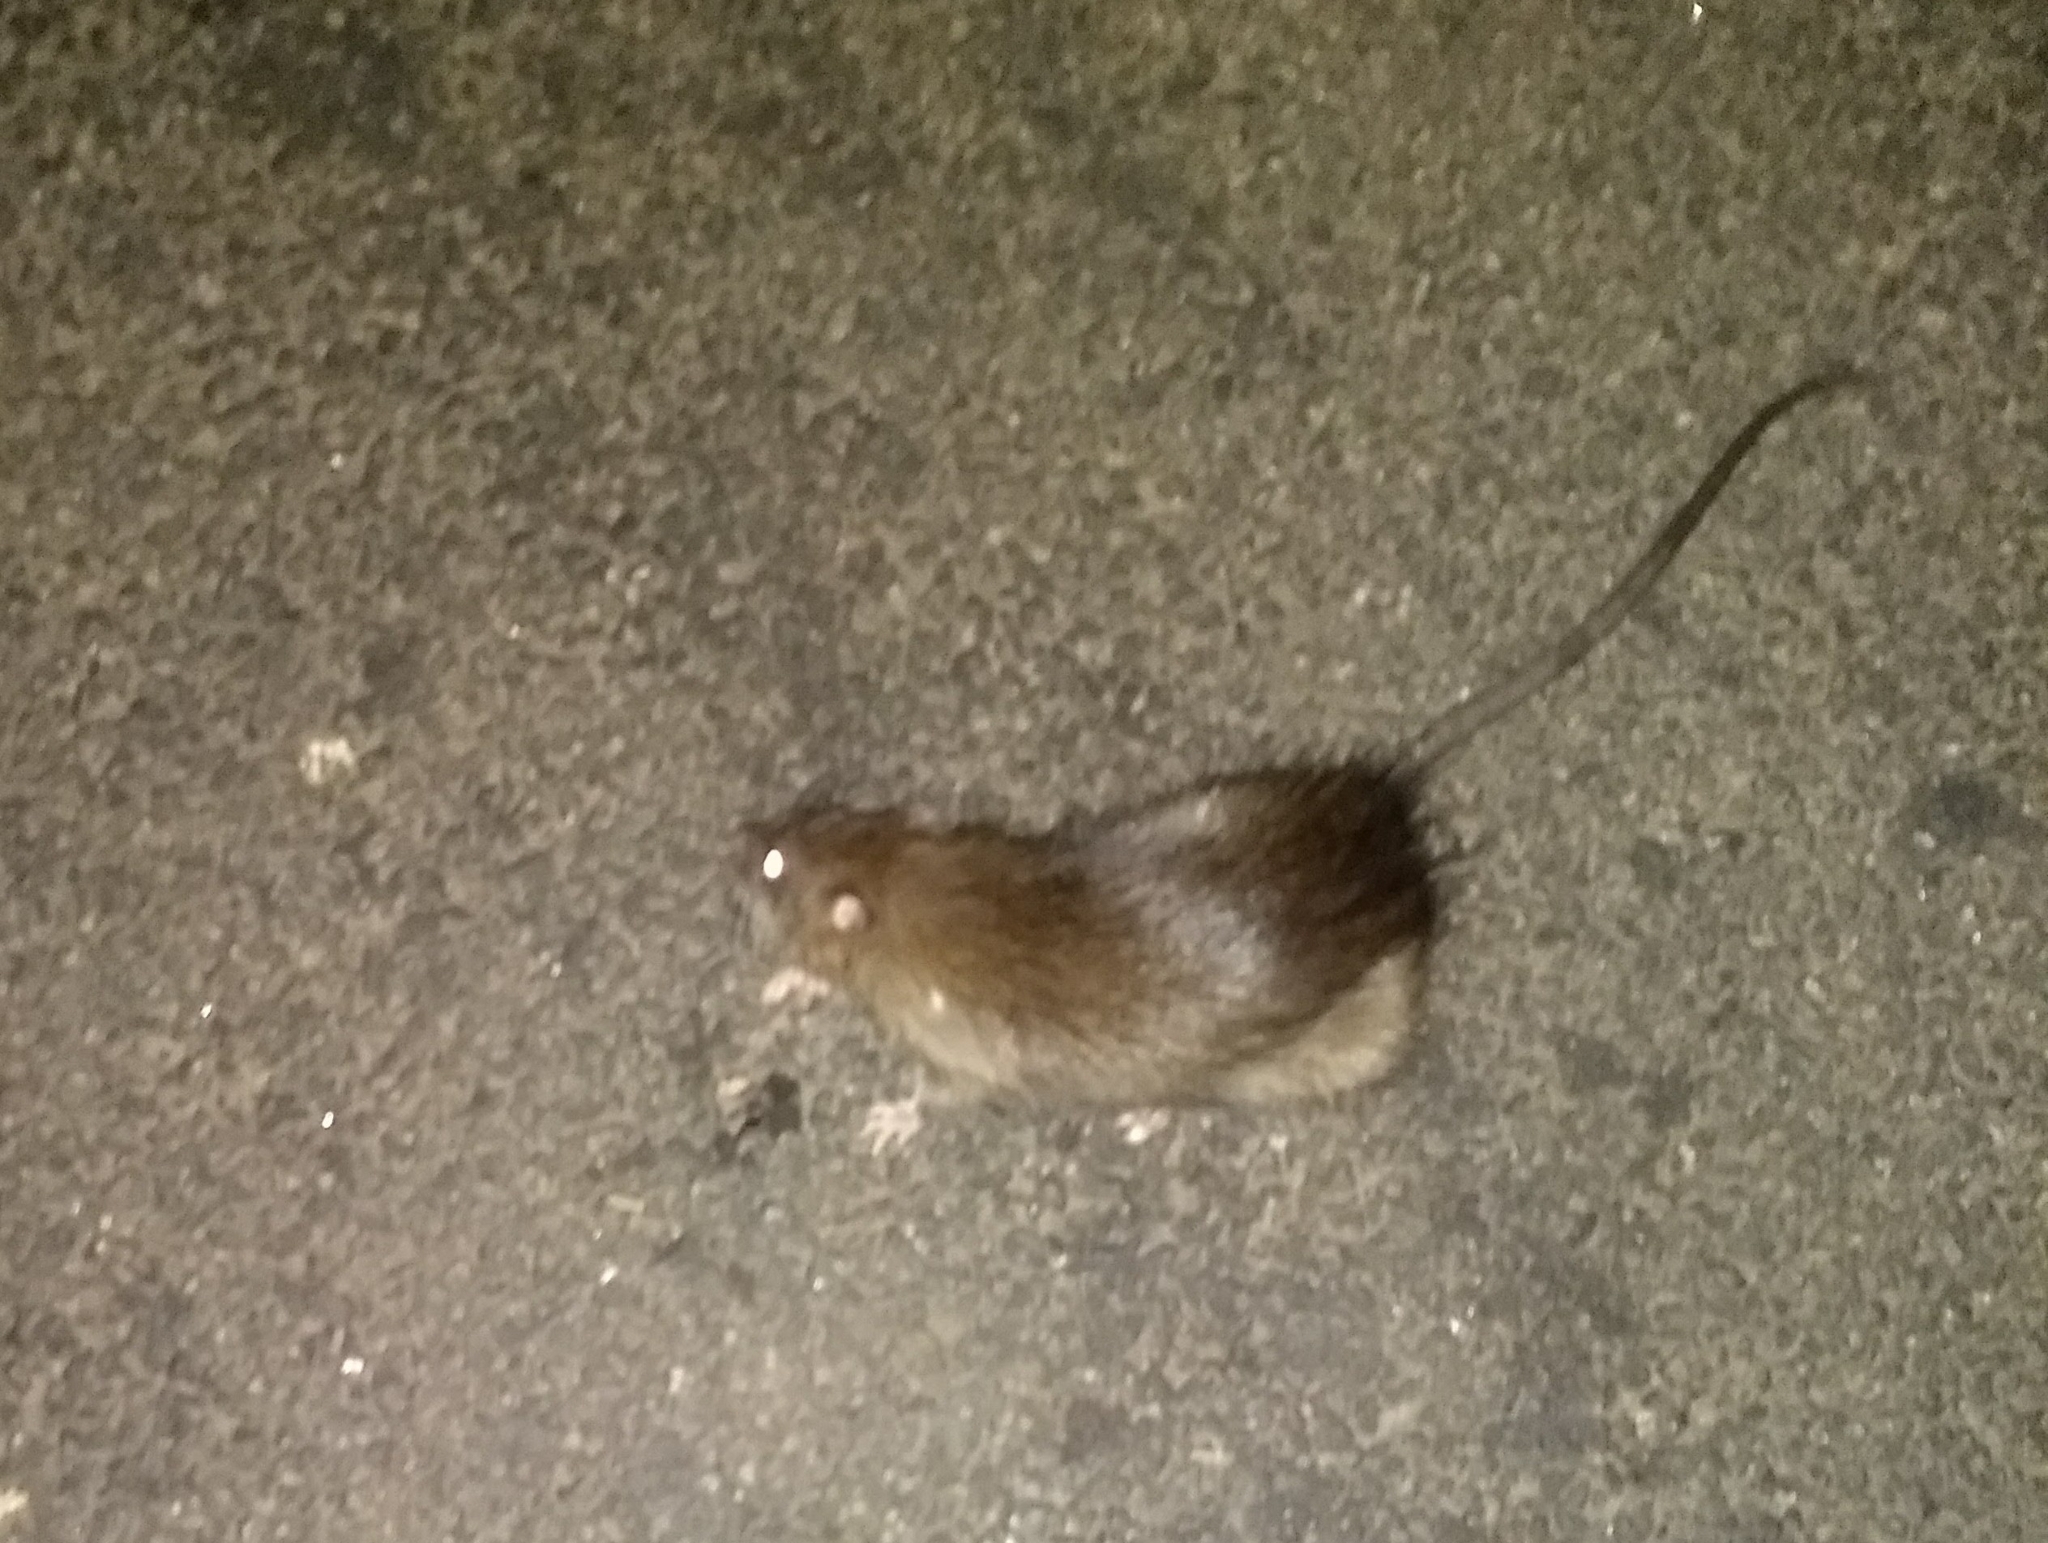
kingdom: Animalia
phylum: Chordata
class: Mammalia
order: Rodentia
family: Muridae
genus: Rattus
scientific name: Rattus norvegicus
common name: Brown rat
